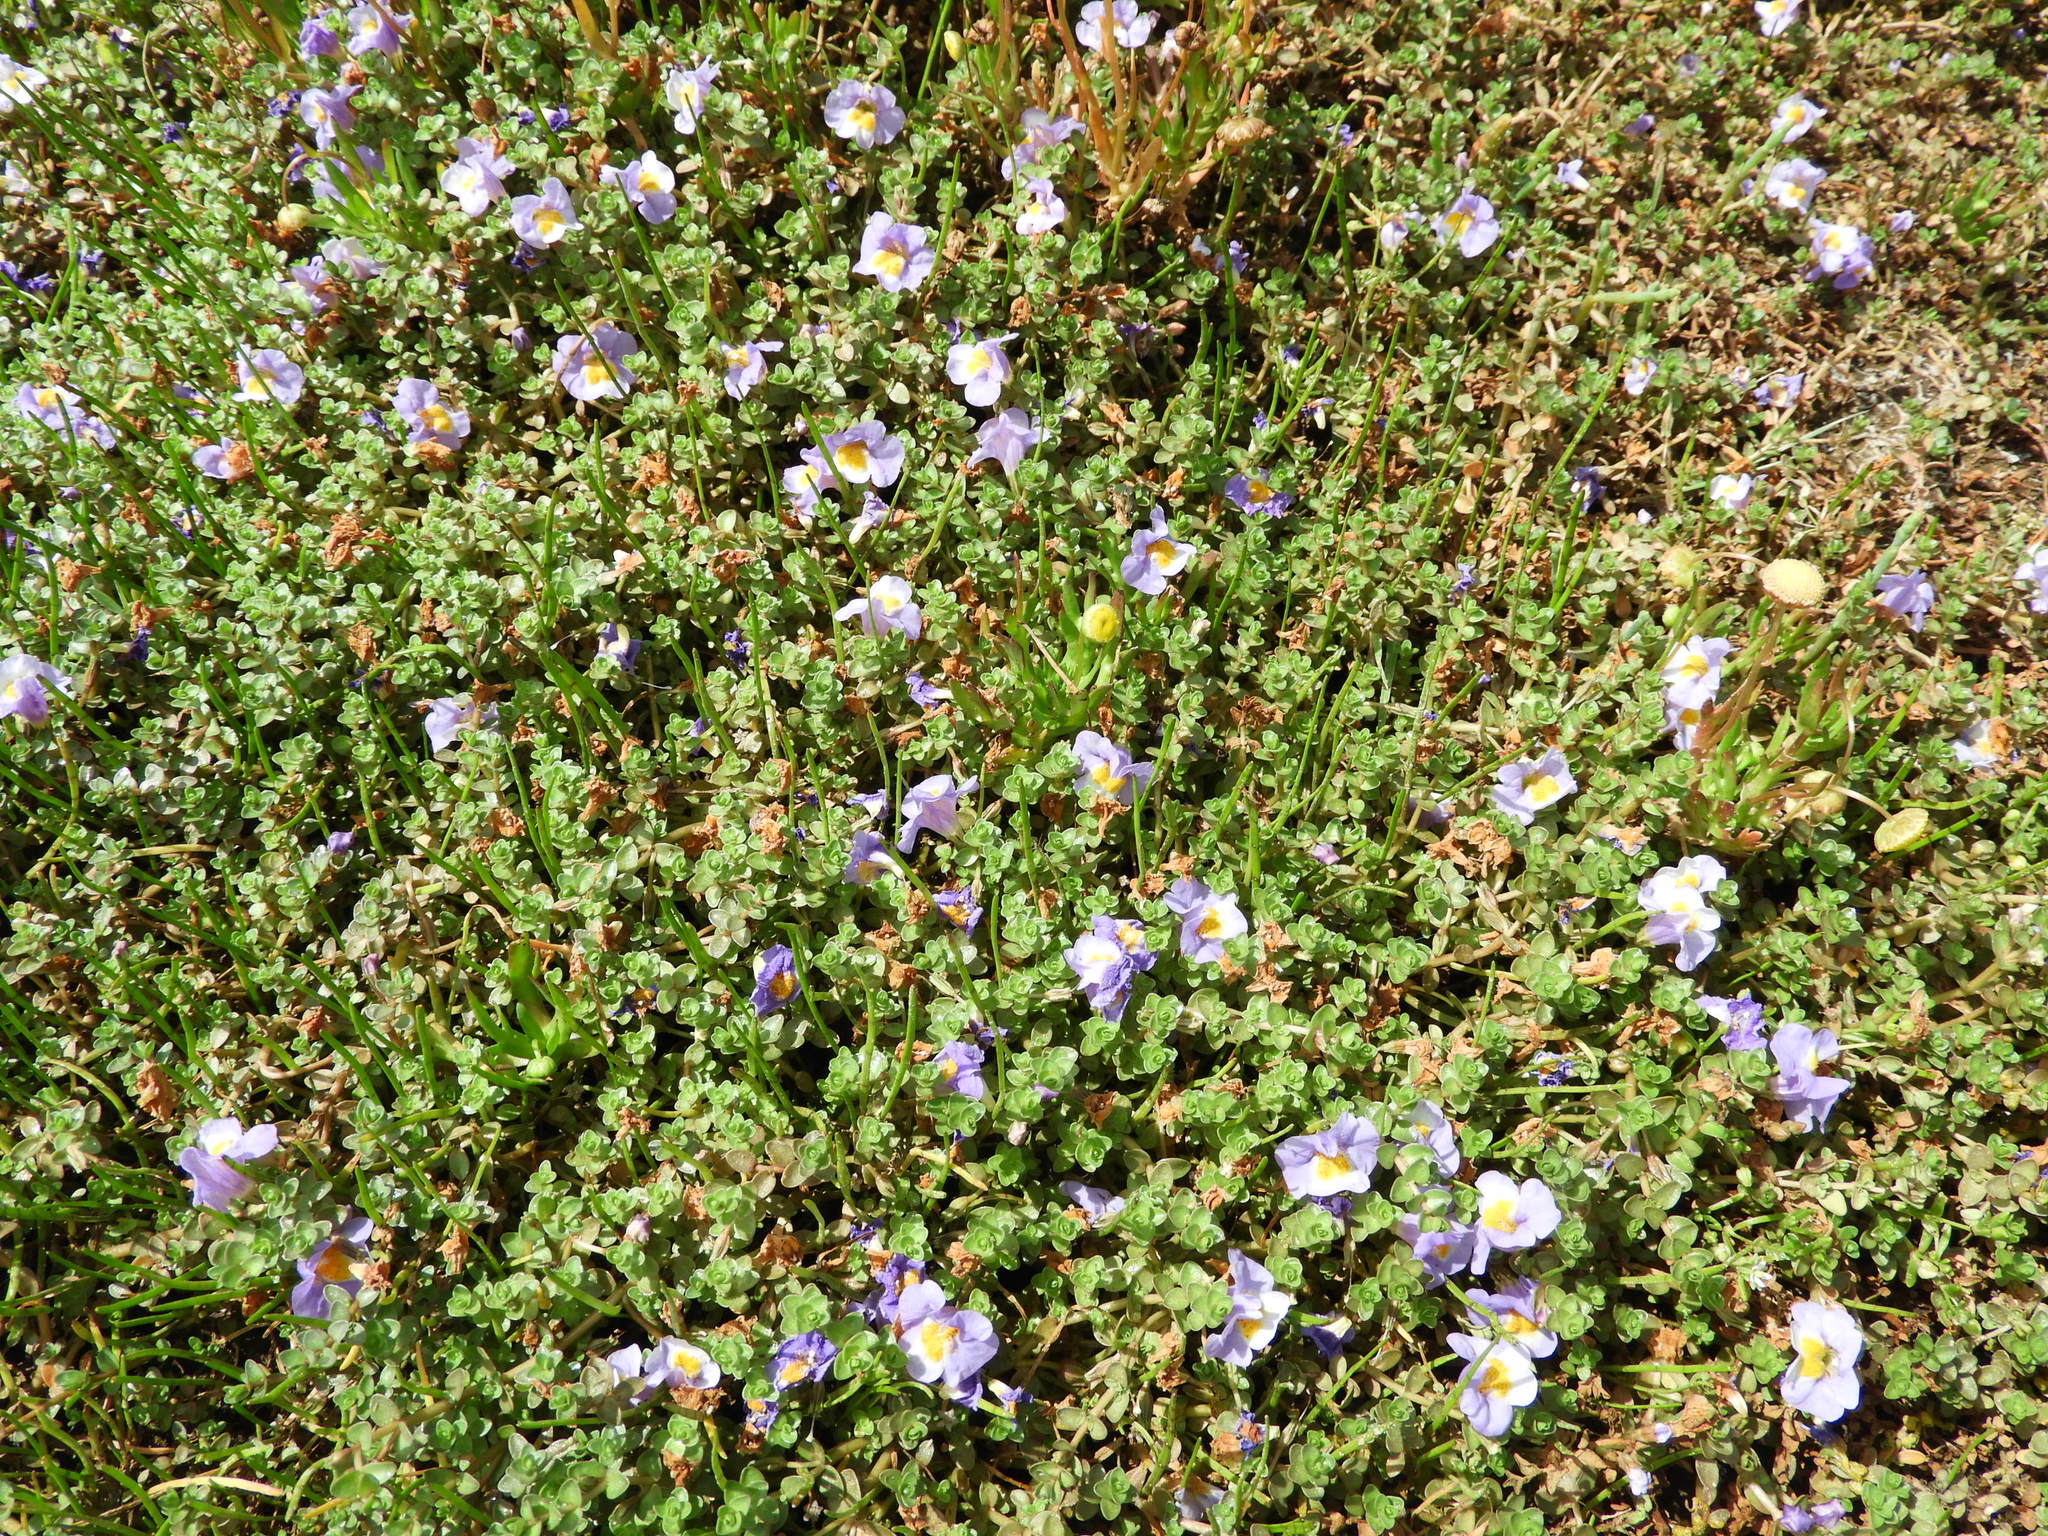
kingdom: Plantae
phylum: Tracheophyta
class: Magnoliopsida
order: Lamiales
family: Phrymaceae
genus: Thyridia
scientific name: Thyridia repens
